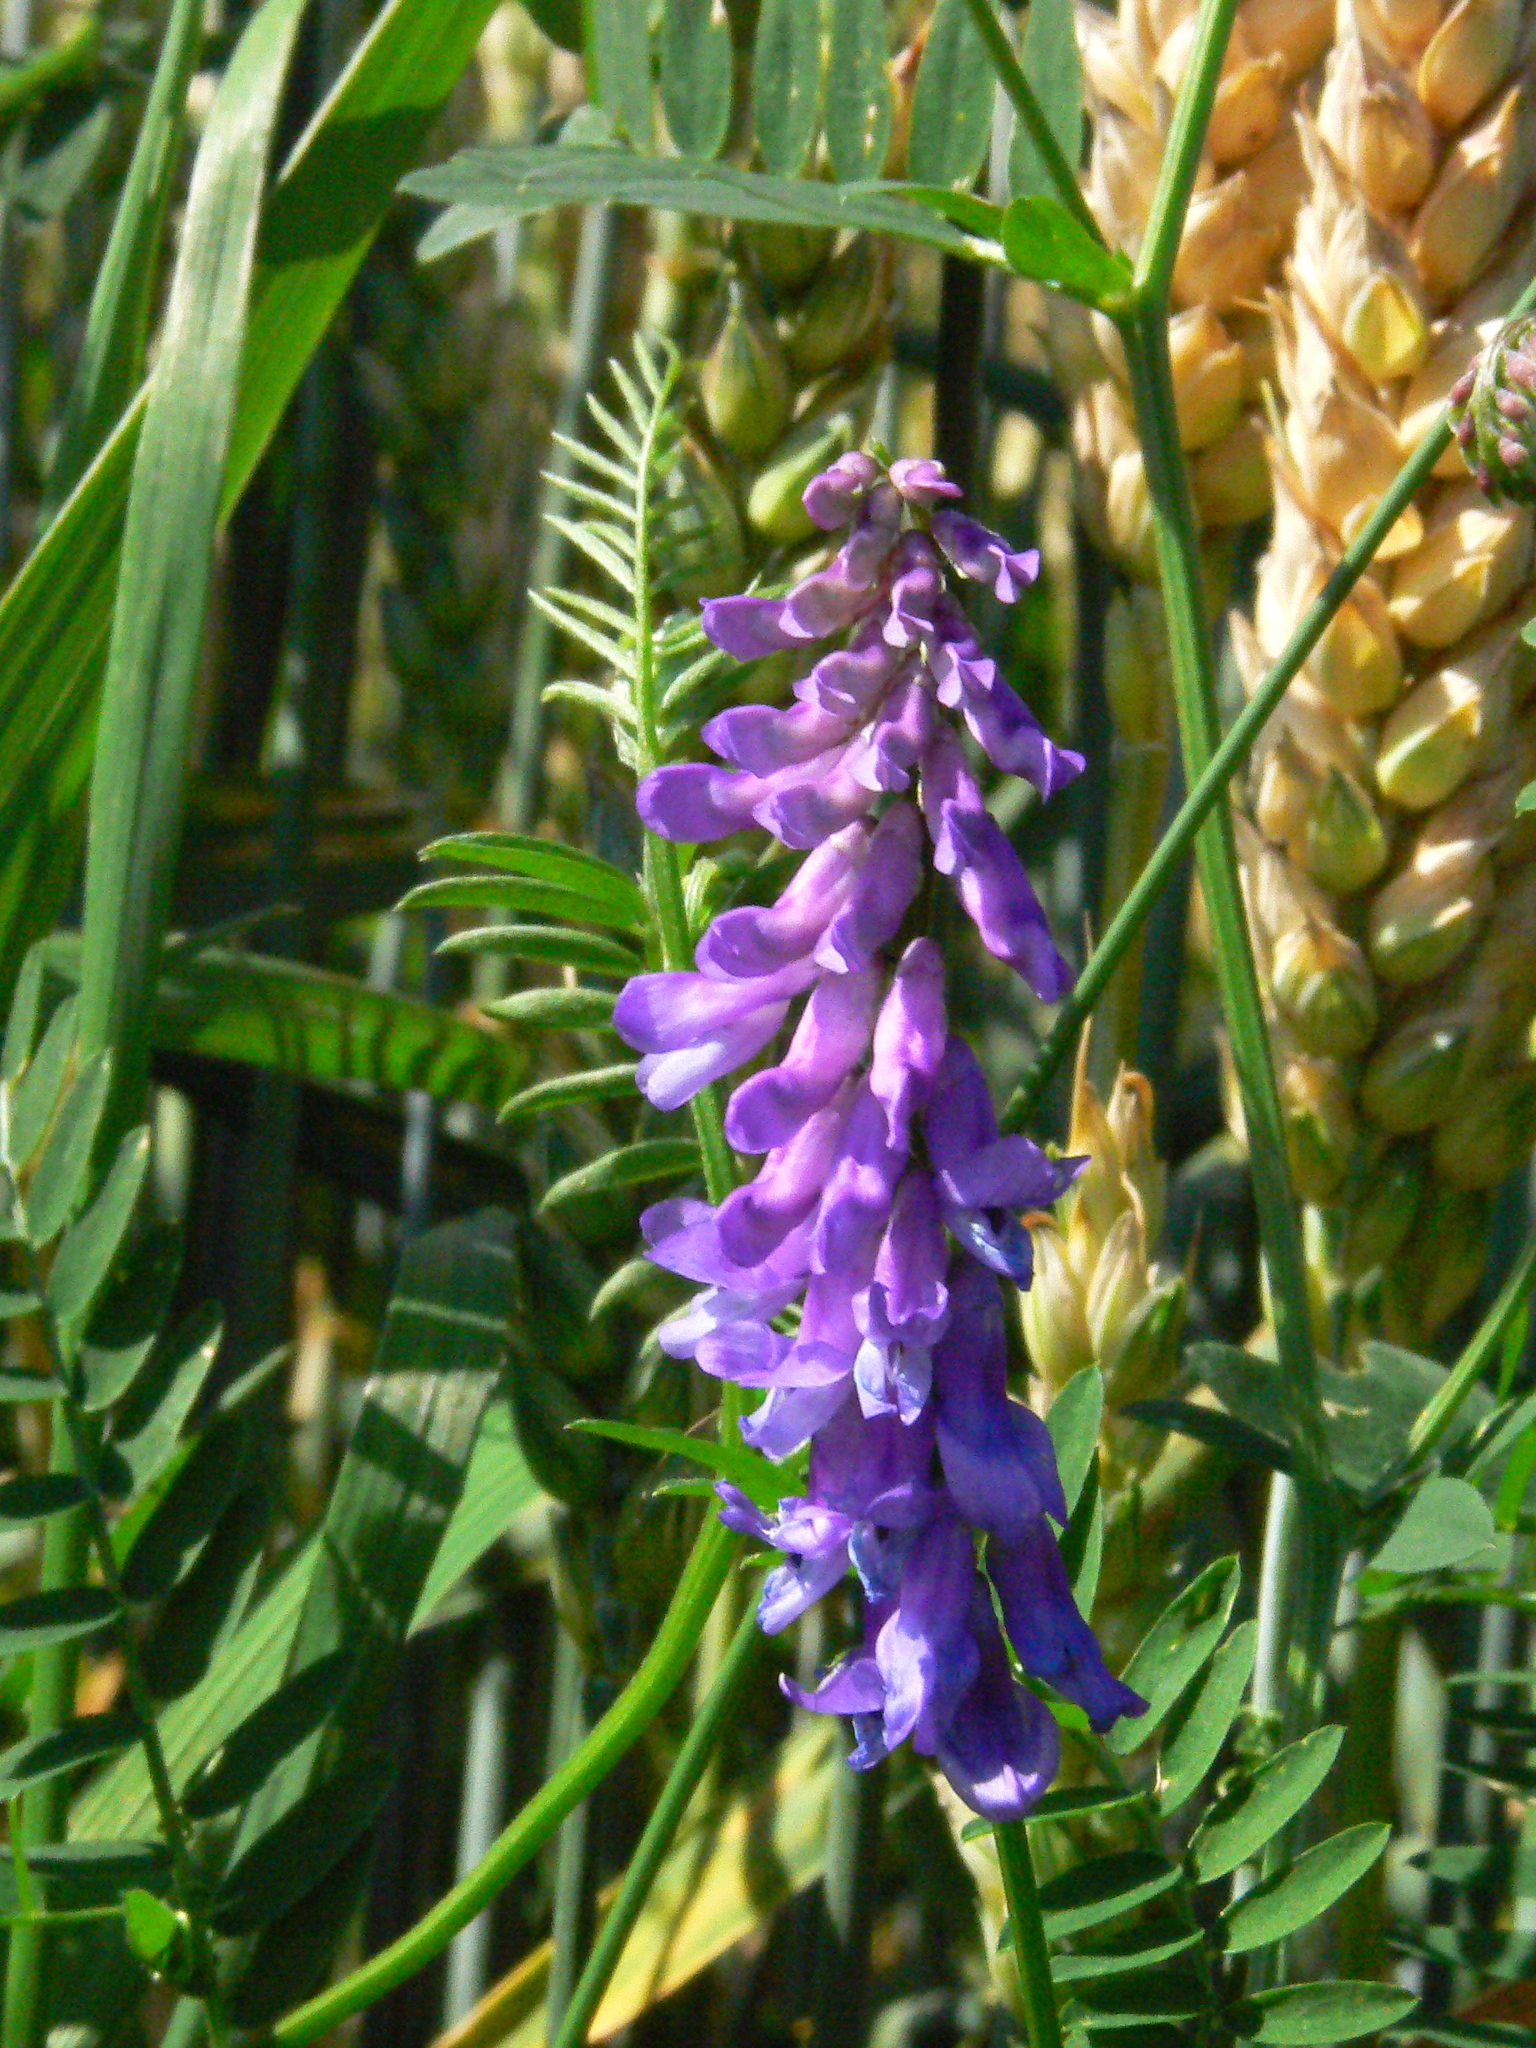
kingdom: Plantae
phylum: Tracheophyta
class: Magnoliopsida
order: Fabales
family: Fabaceae
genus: Vicia
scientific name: Vicia cracca
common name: Bird vetch
